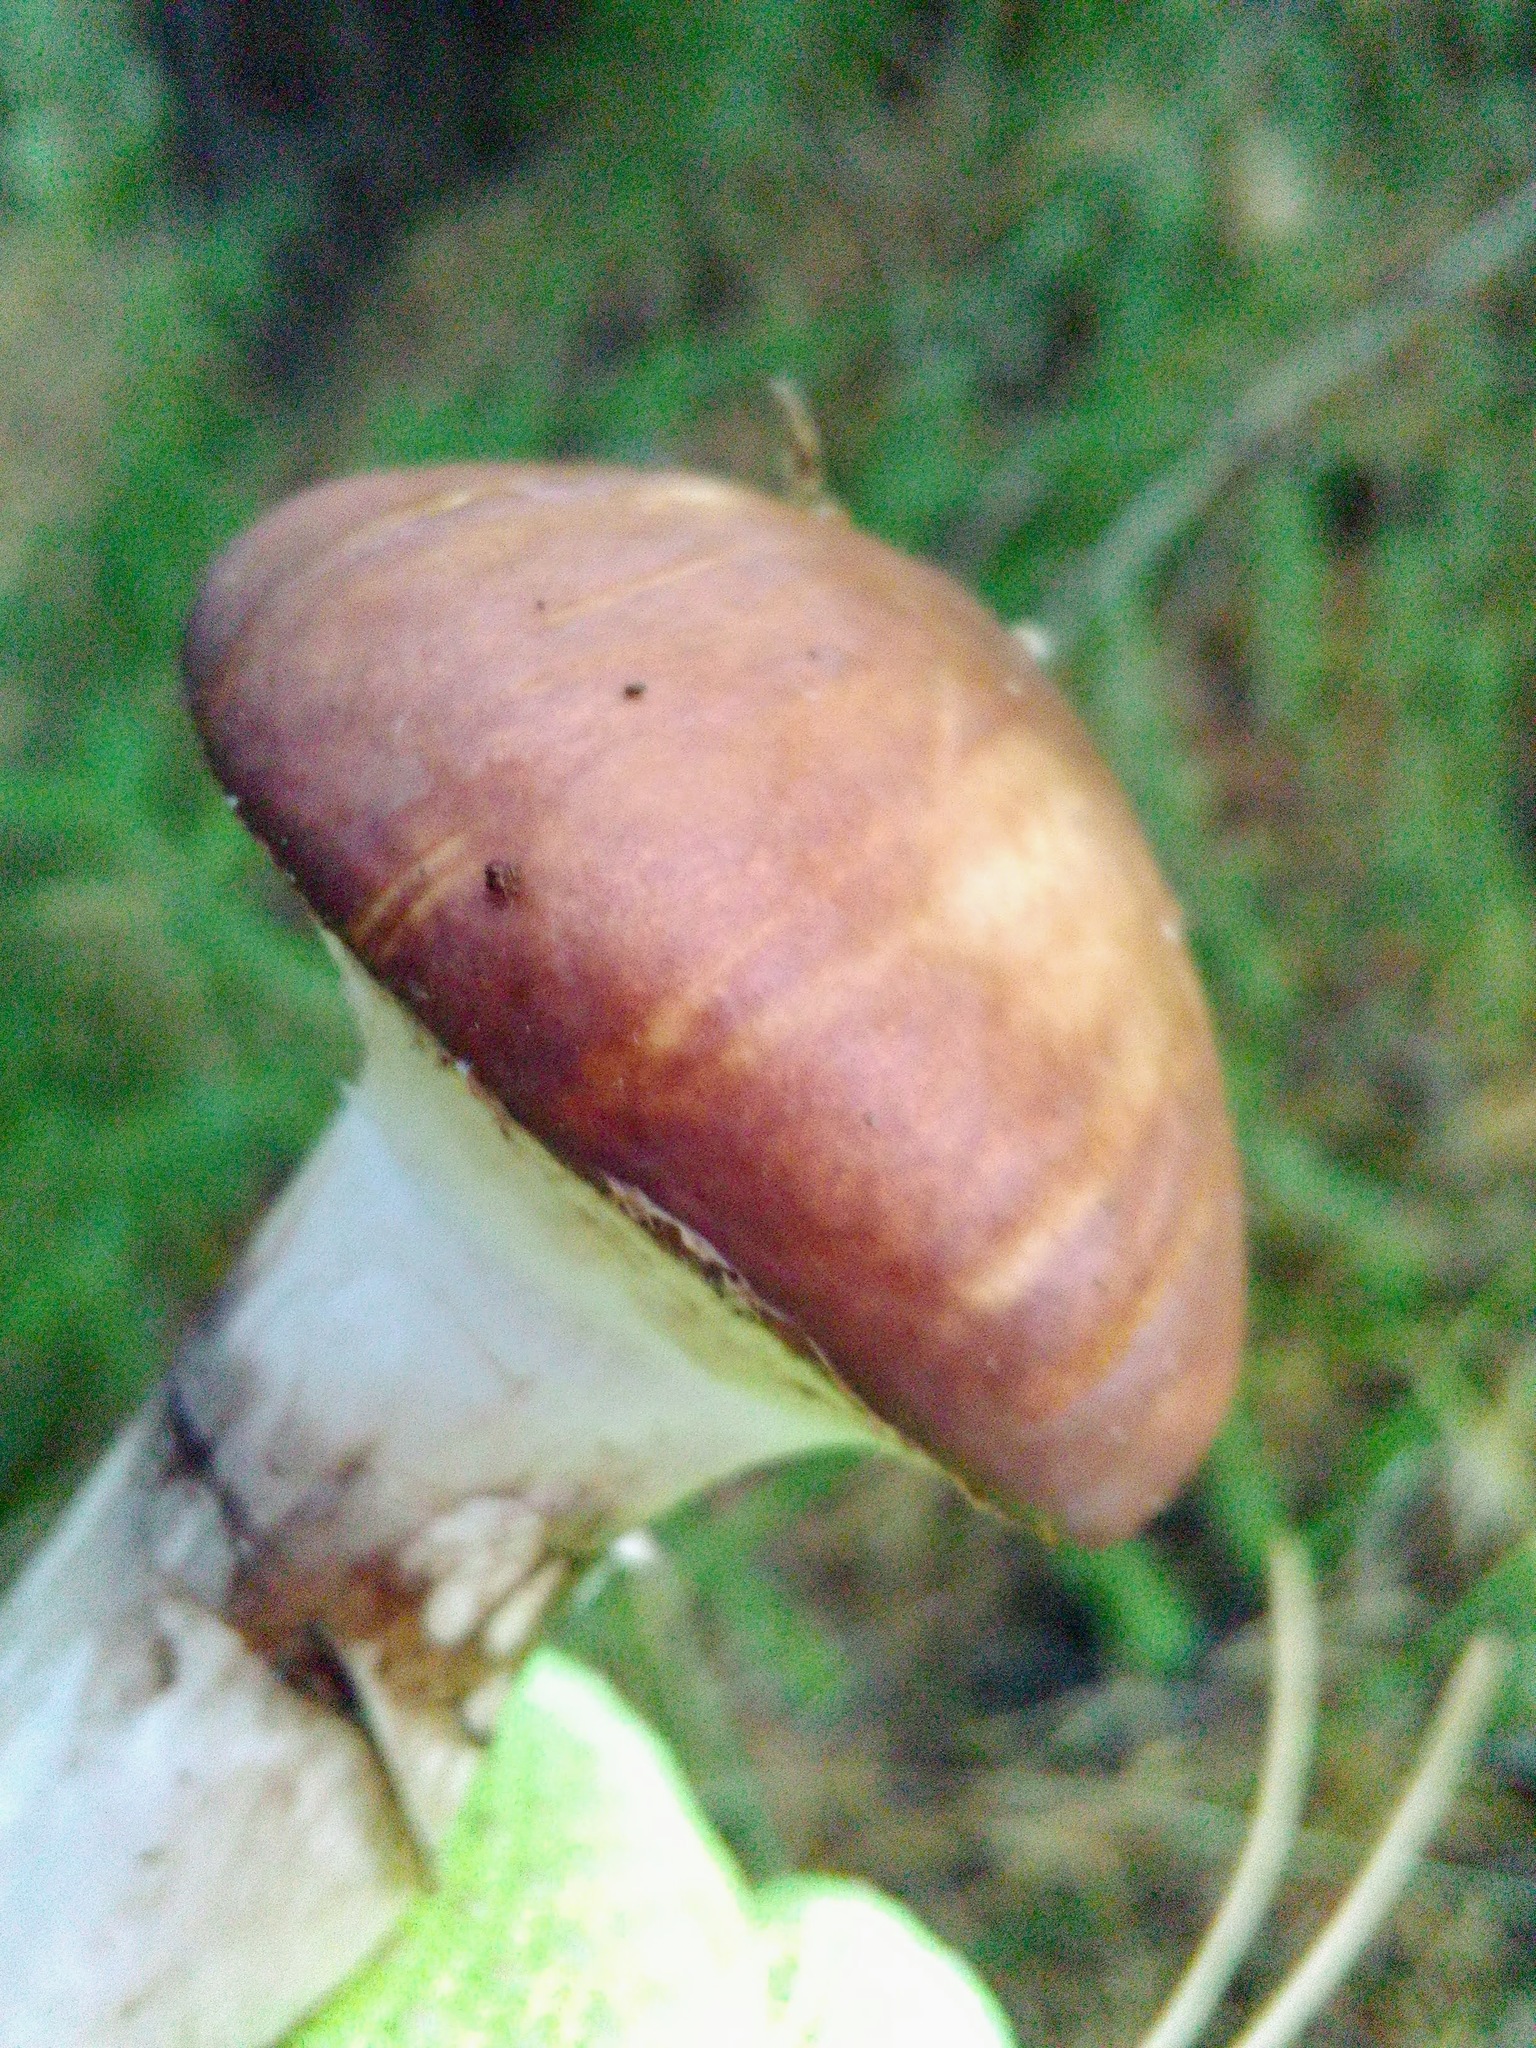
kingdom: Fungi
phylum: Basidiomycota
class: Agaricomycetes
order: Boletales
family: Suillaceae
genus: Suillus
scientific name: Suillus luteus
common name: Slippery jack
